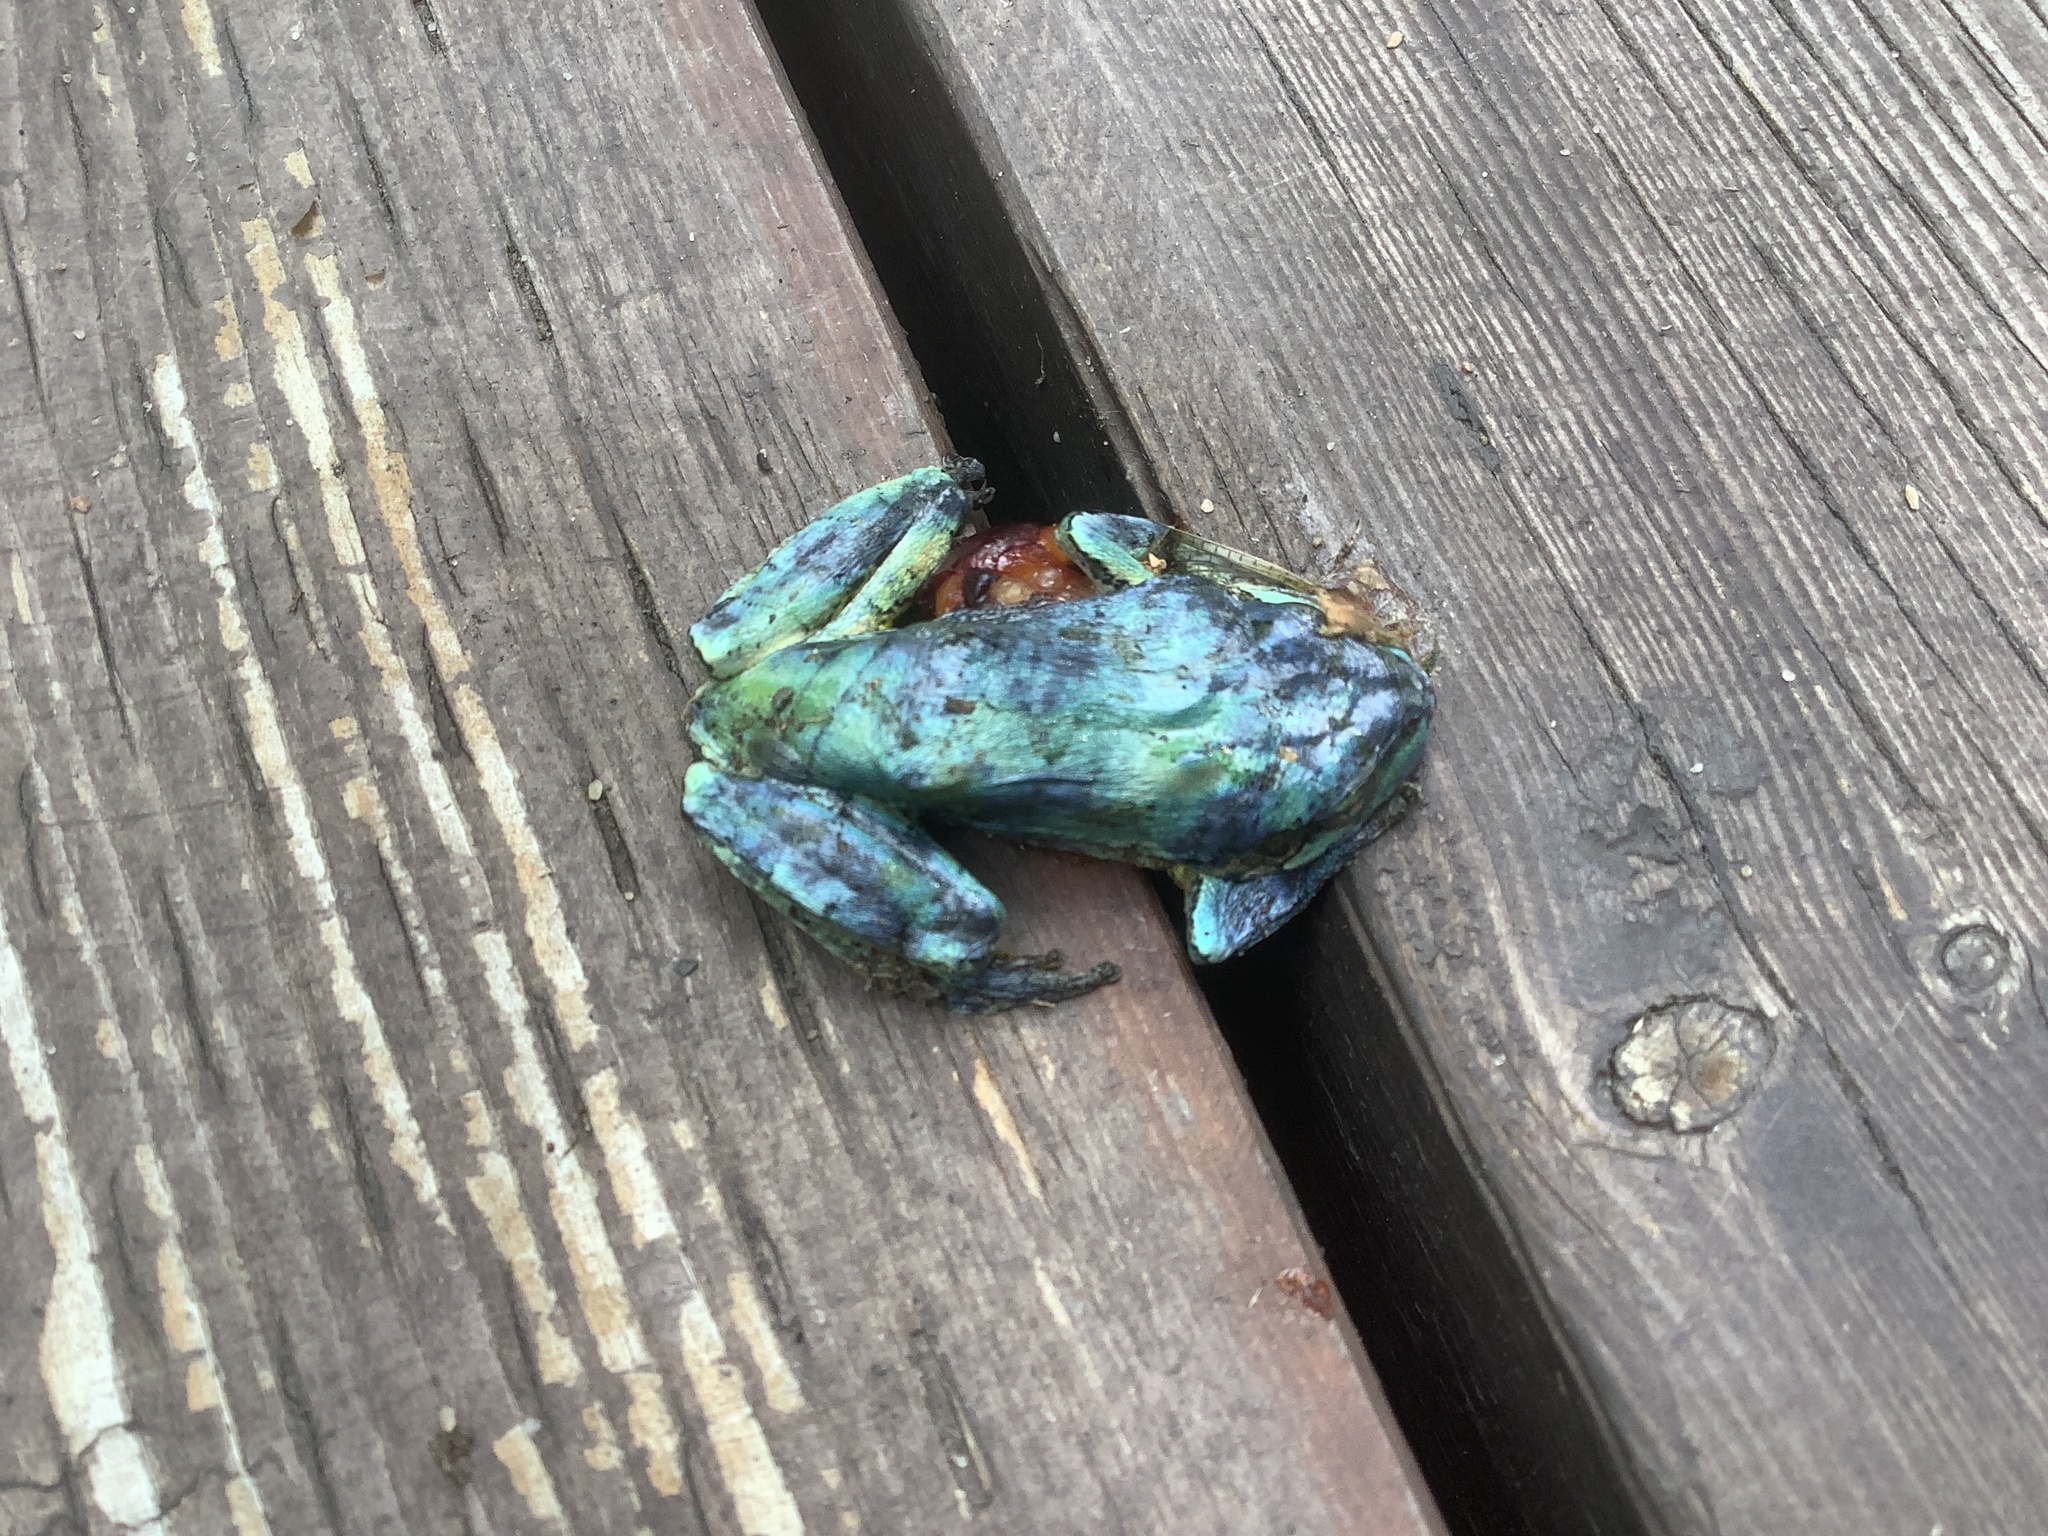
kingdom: Animalia
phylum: Chordata
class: Amphibia
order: Anura
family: Hylidae
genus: Hyla
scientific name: Hyla
